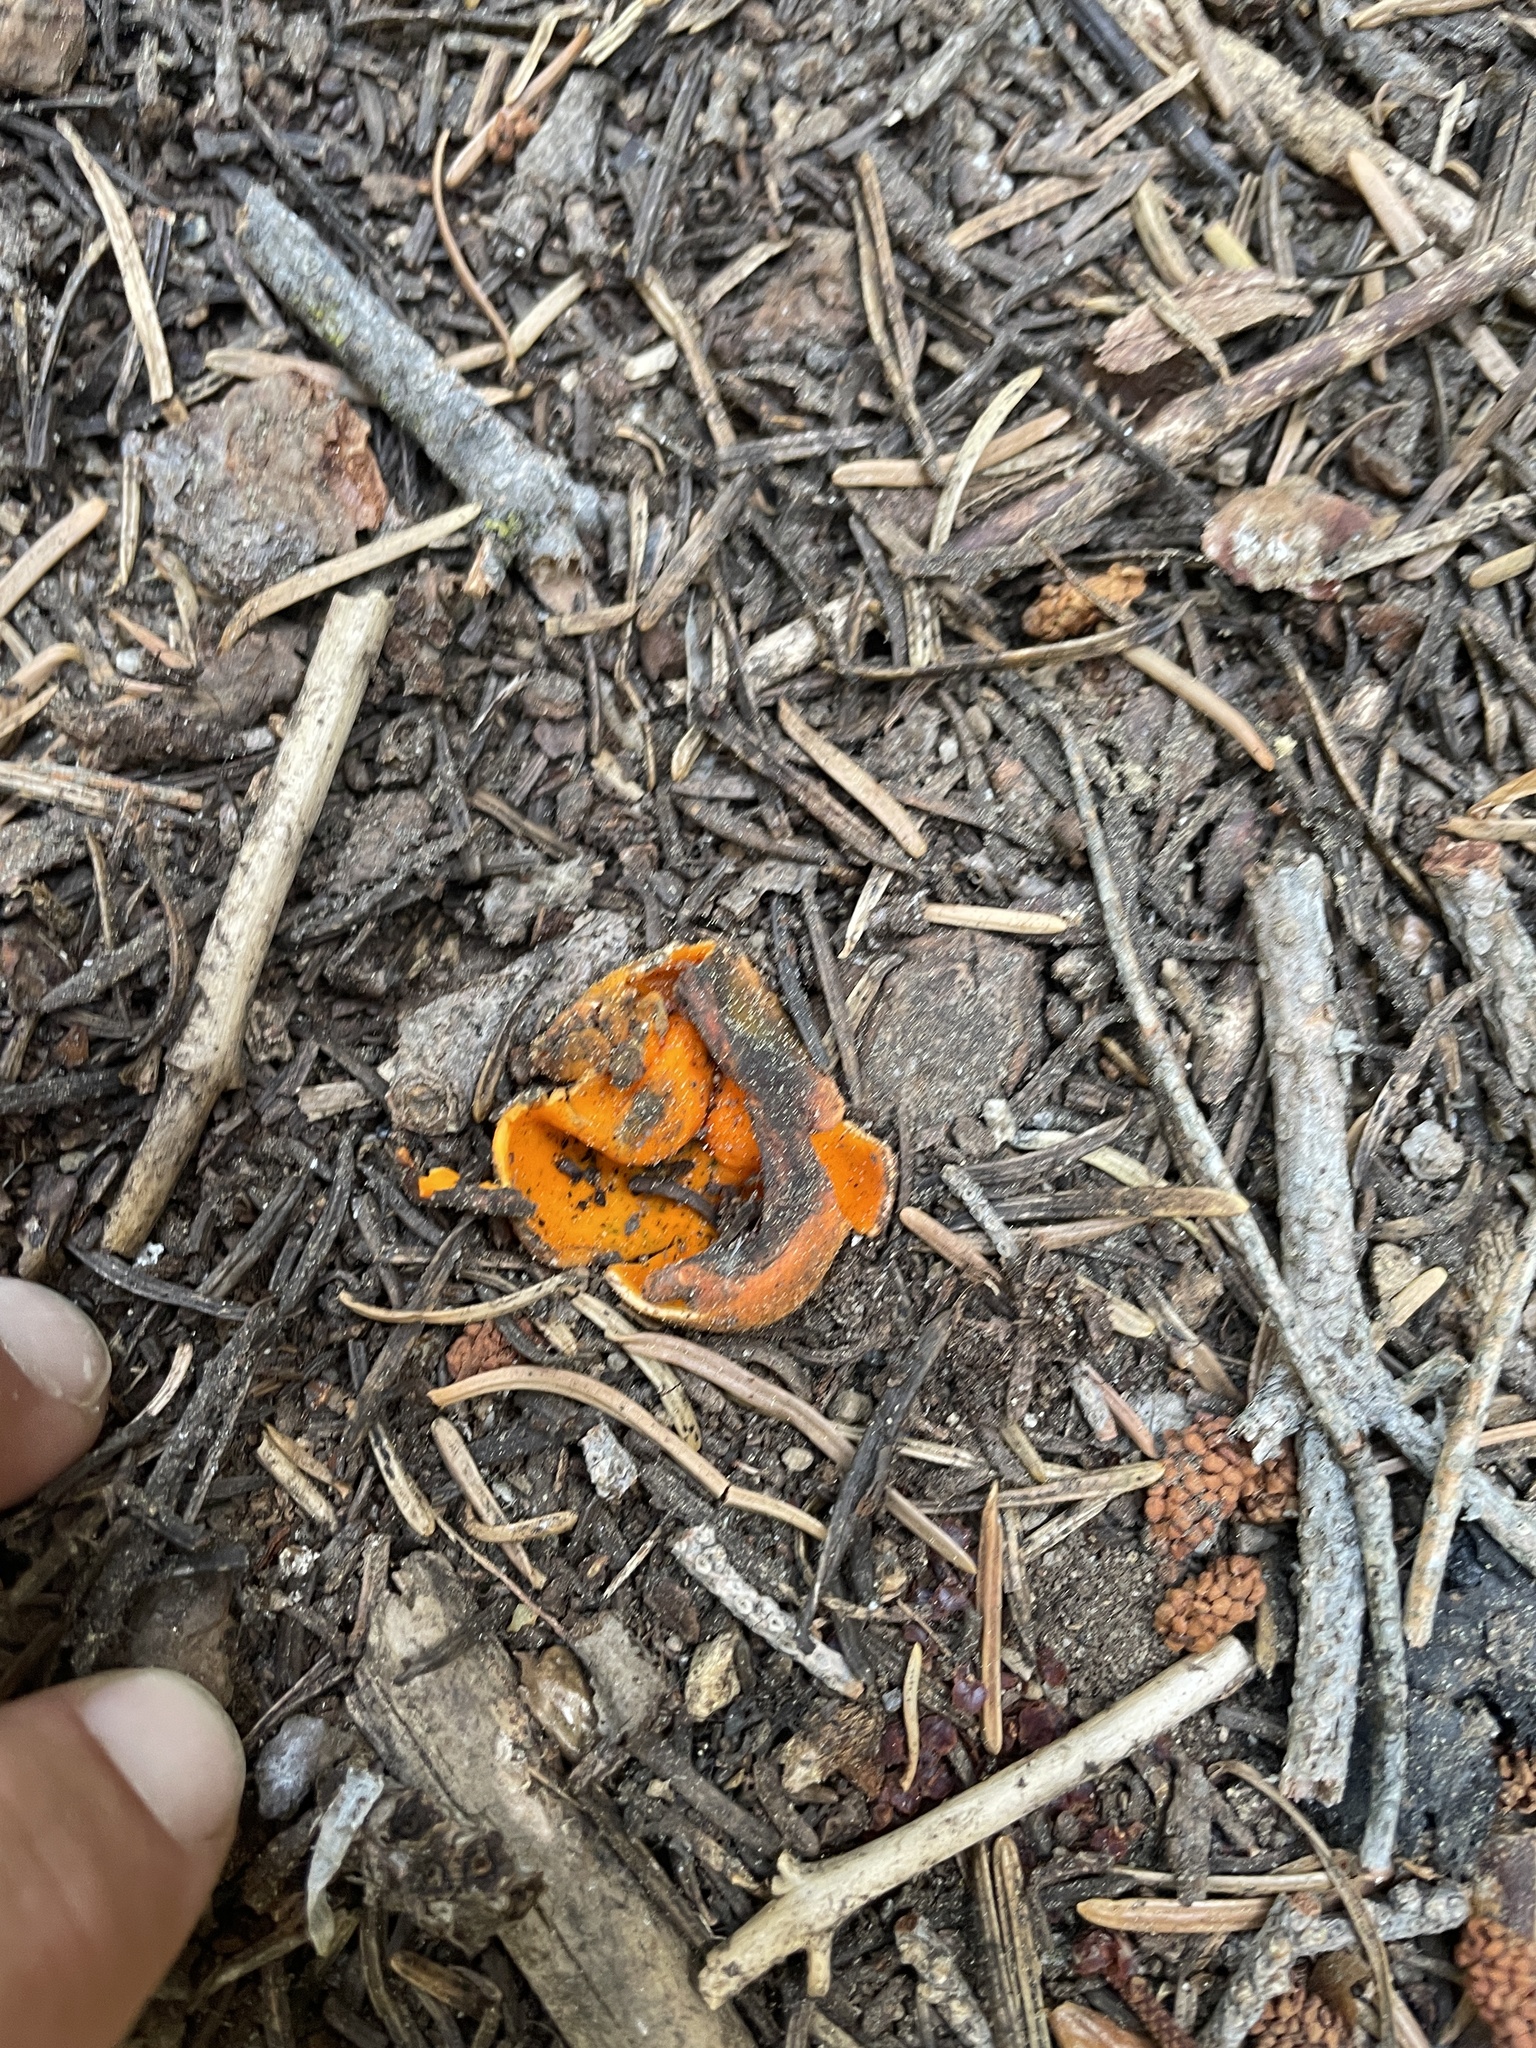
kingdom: Fungi
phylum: Ascomycota
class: Pezizomycetes
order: Pezizales
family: Caloscyphaceae
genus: Caloscypha
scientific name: Caloscypha fulgens
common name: Golden cup
